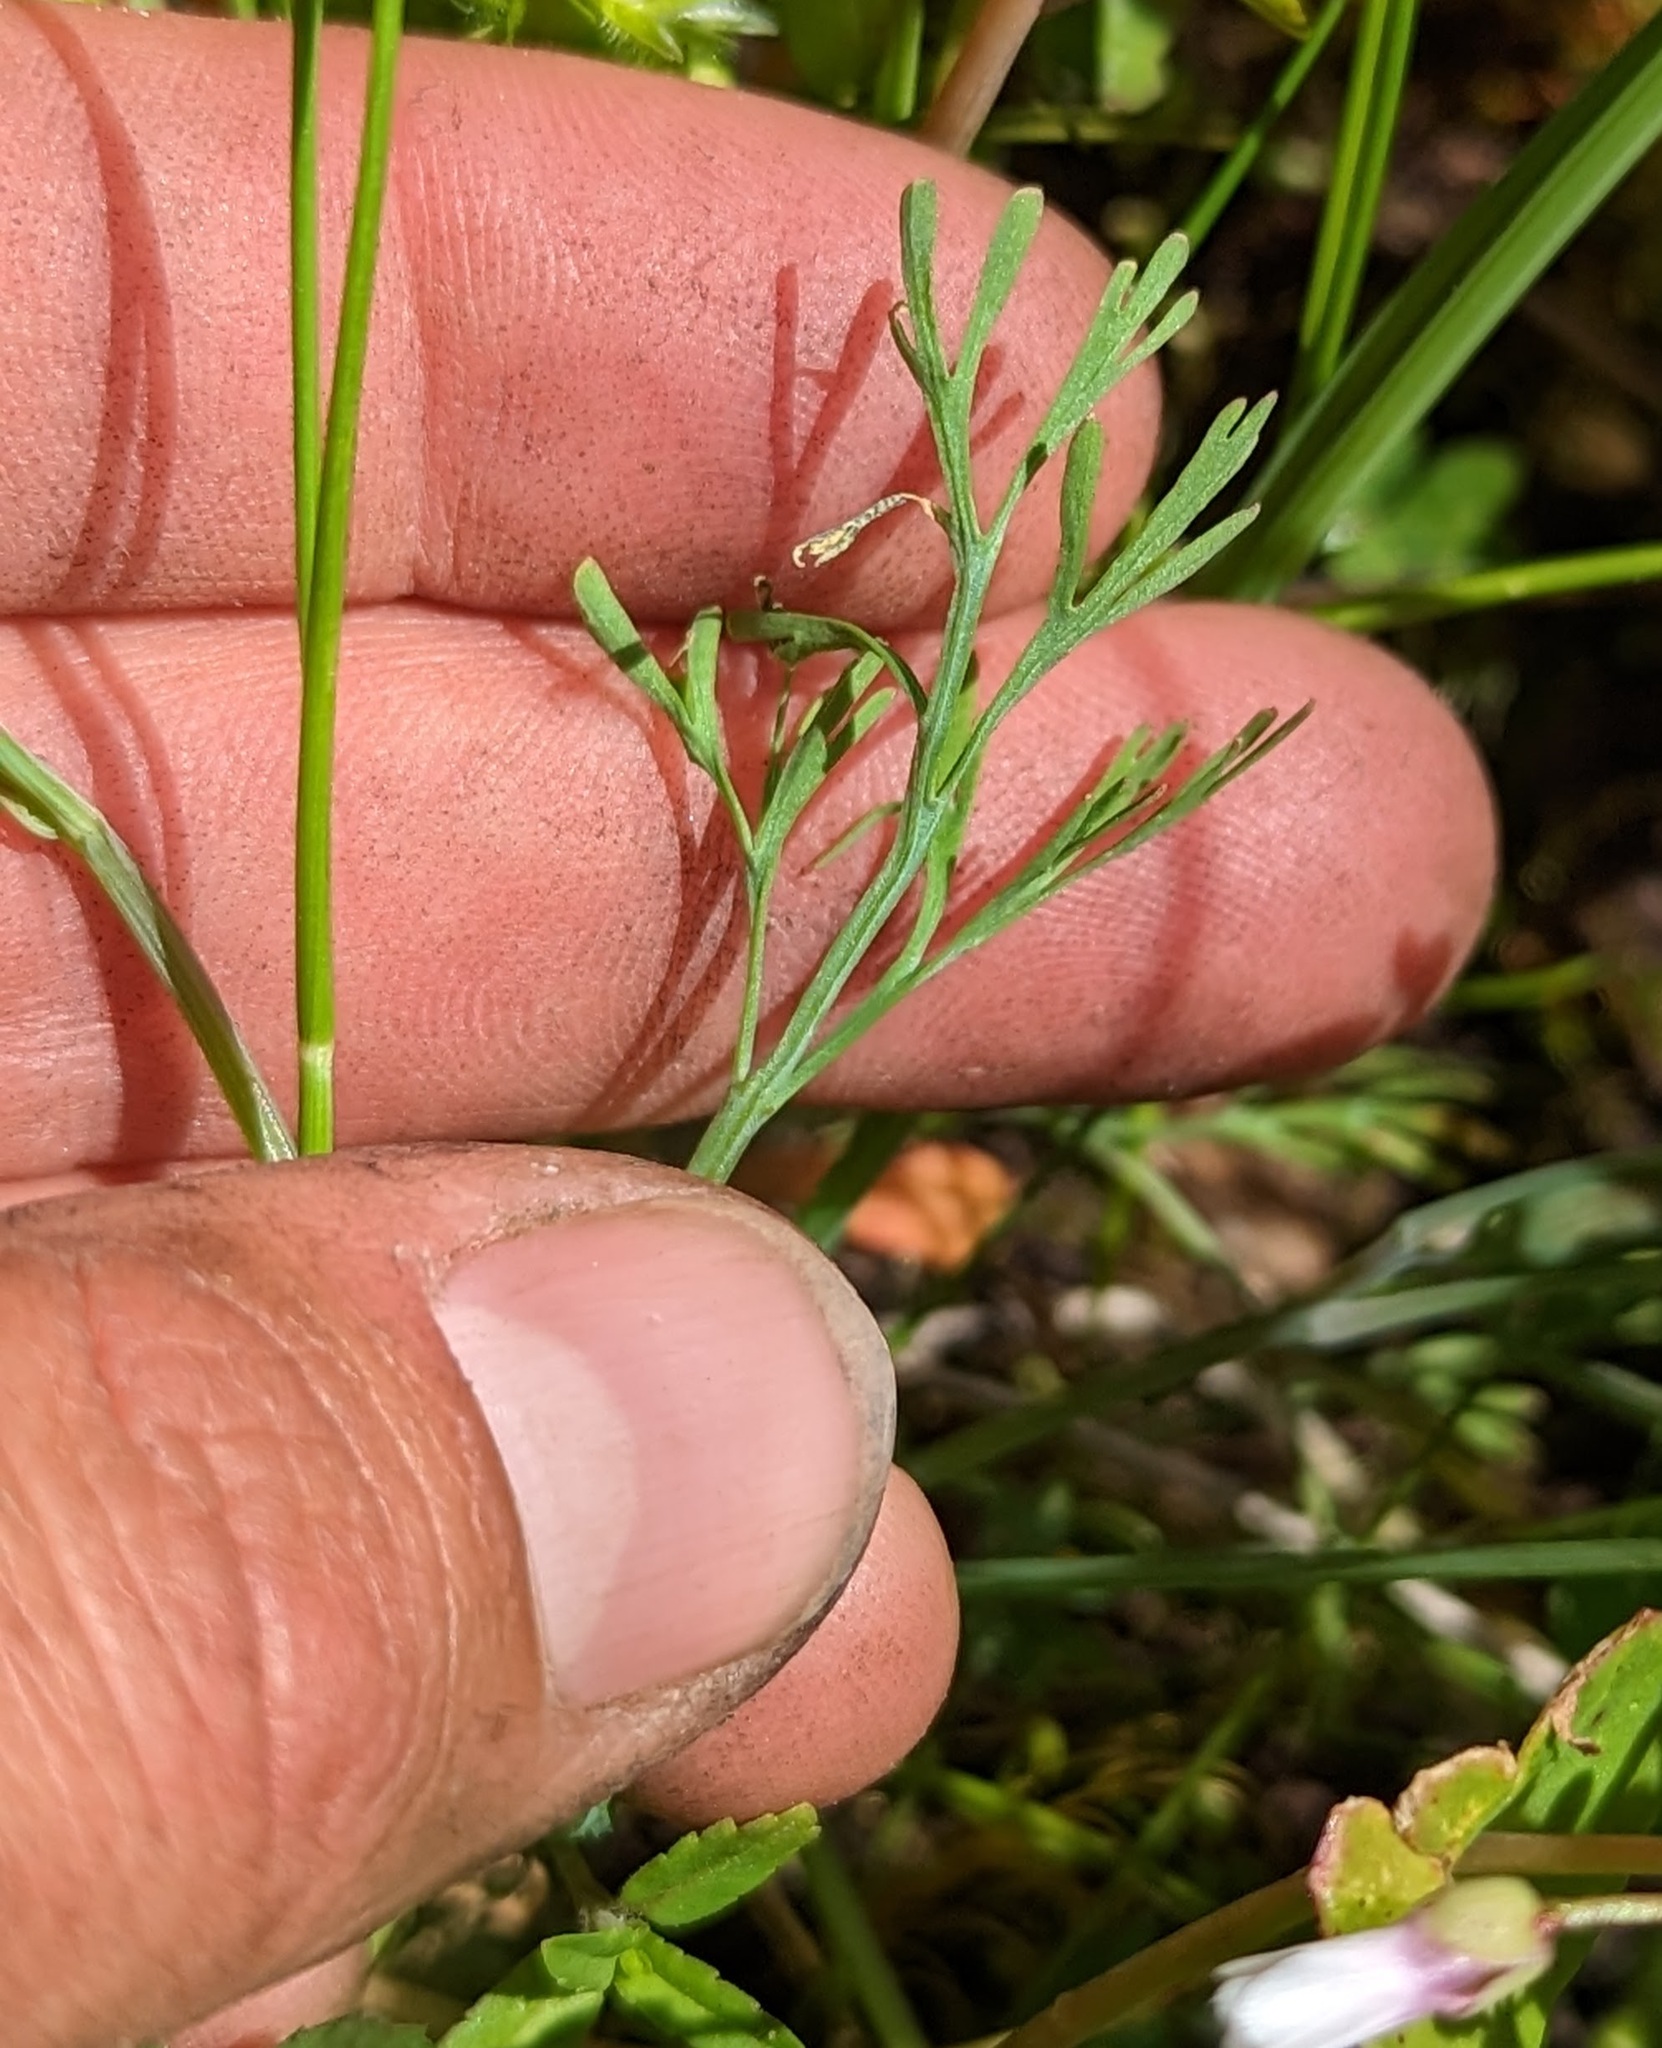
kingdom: Plantae
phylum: Tracheophyta
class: Magnoliopsida
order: Ranunculales
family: Papaveraceae
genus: Eschscholzia
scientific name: Eschscholzia caespitosa
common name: Tufted california-poppy
